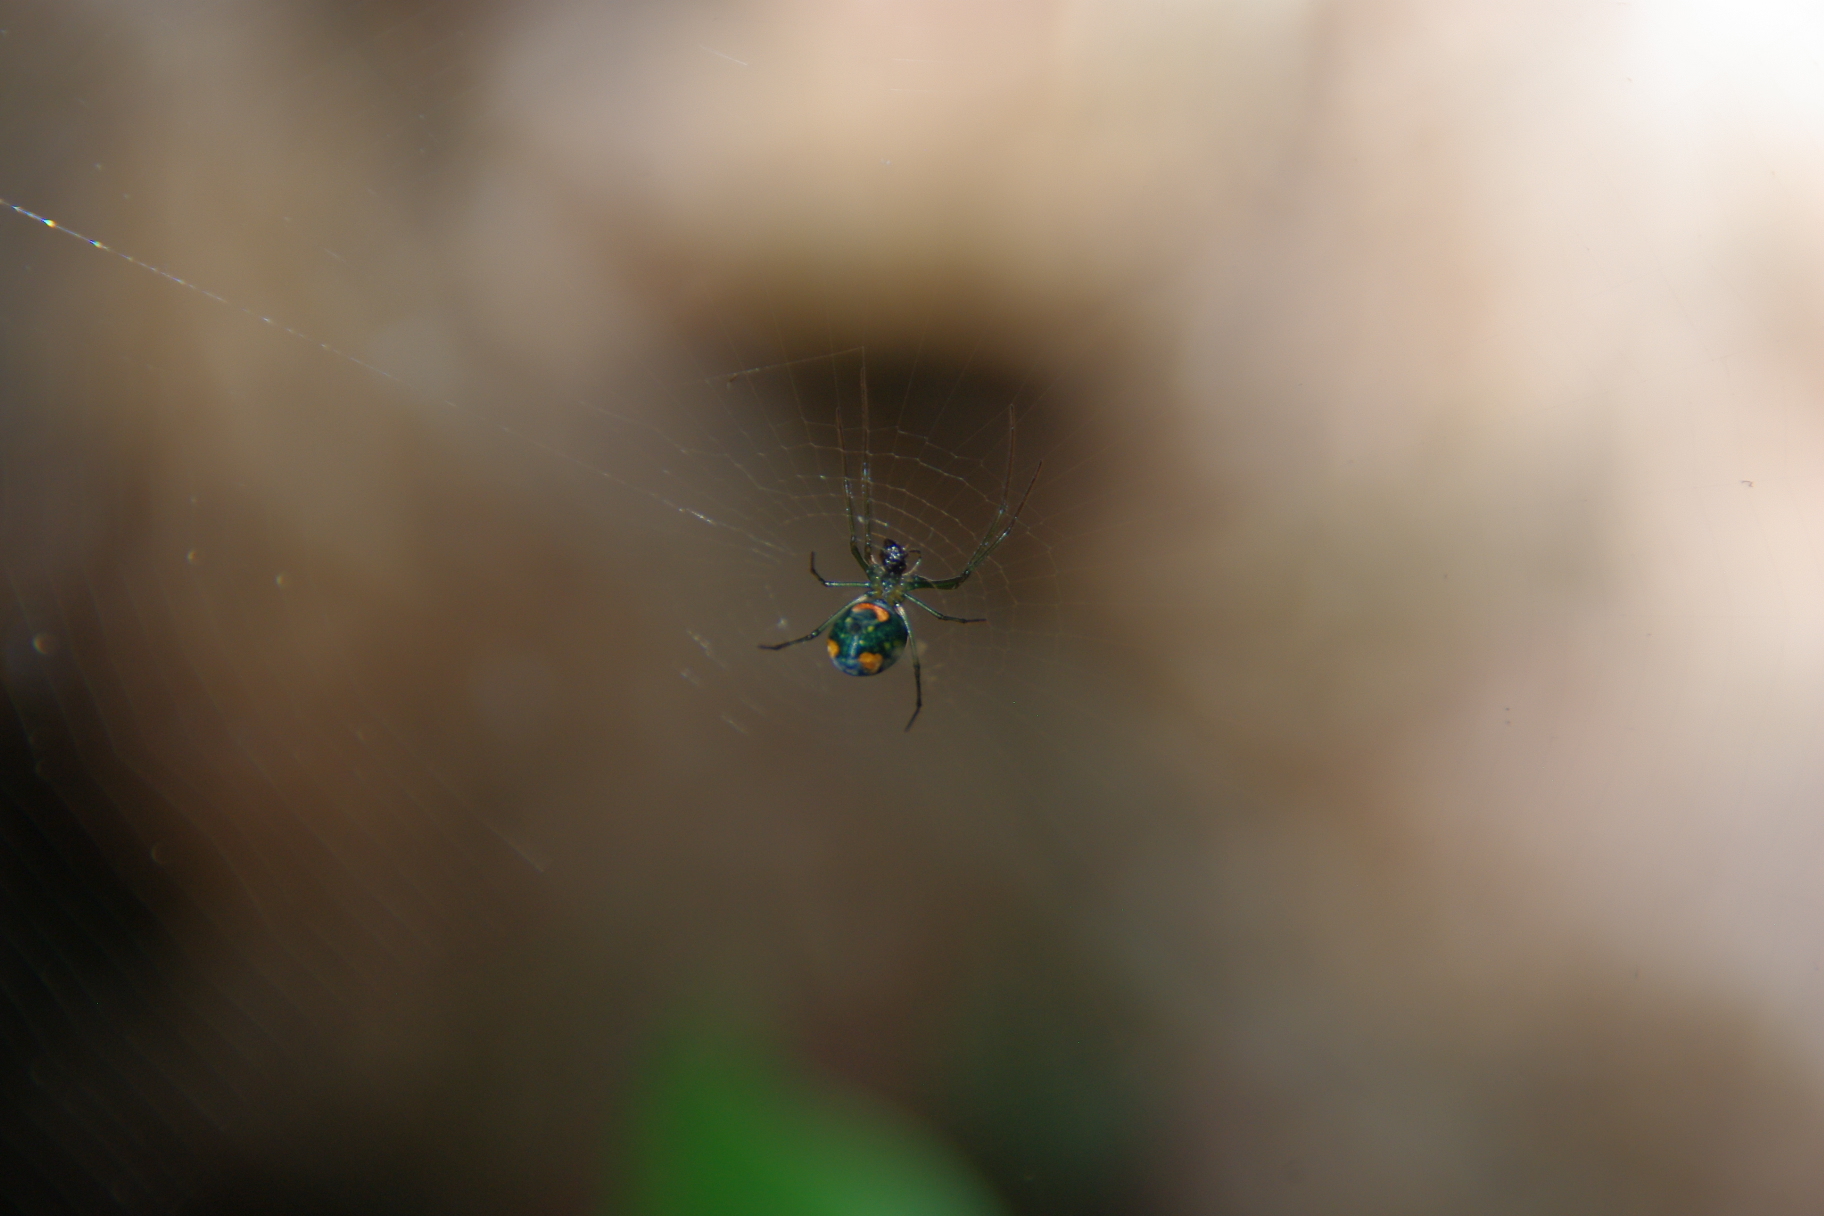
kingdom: Animalia
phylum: Arthropoda
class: Arachnida
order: Araneae
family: Tetragnathidae
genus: Leucauge
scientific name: Leucauge argyrobapta
